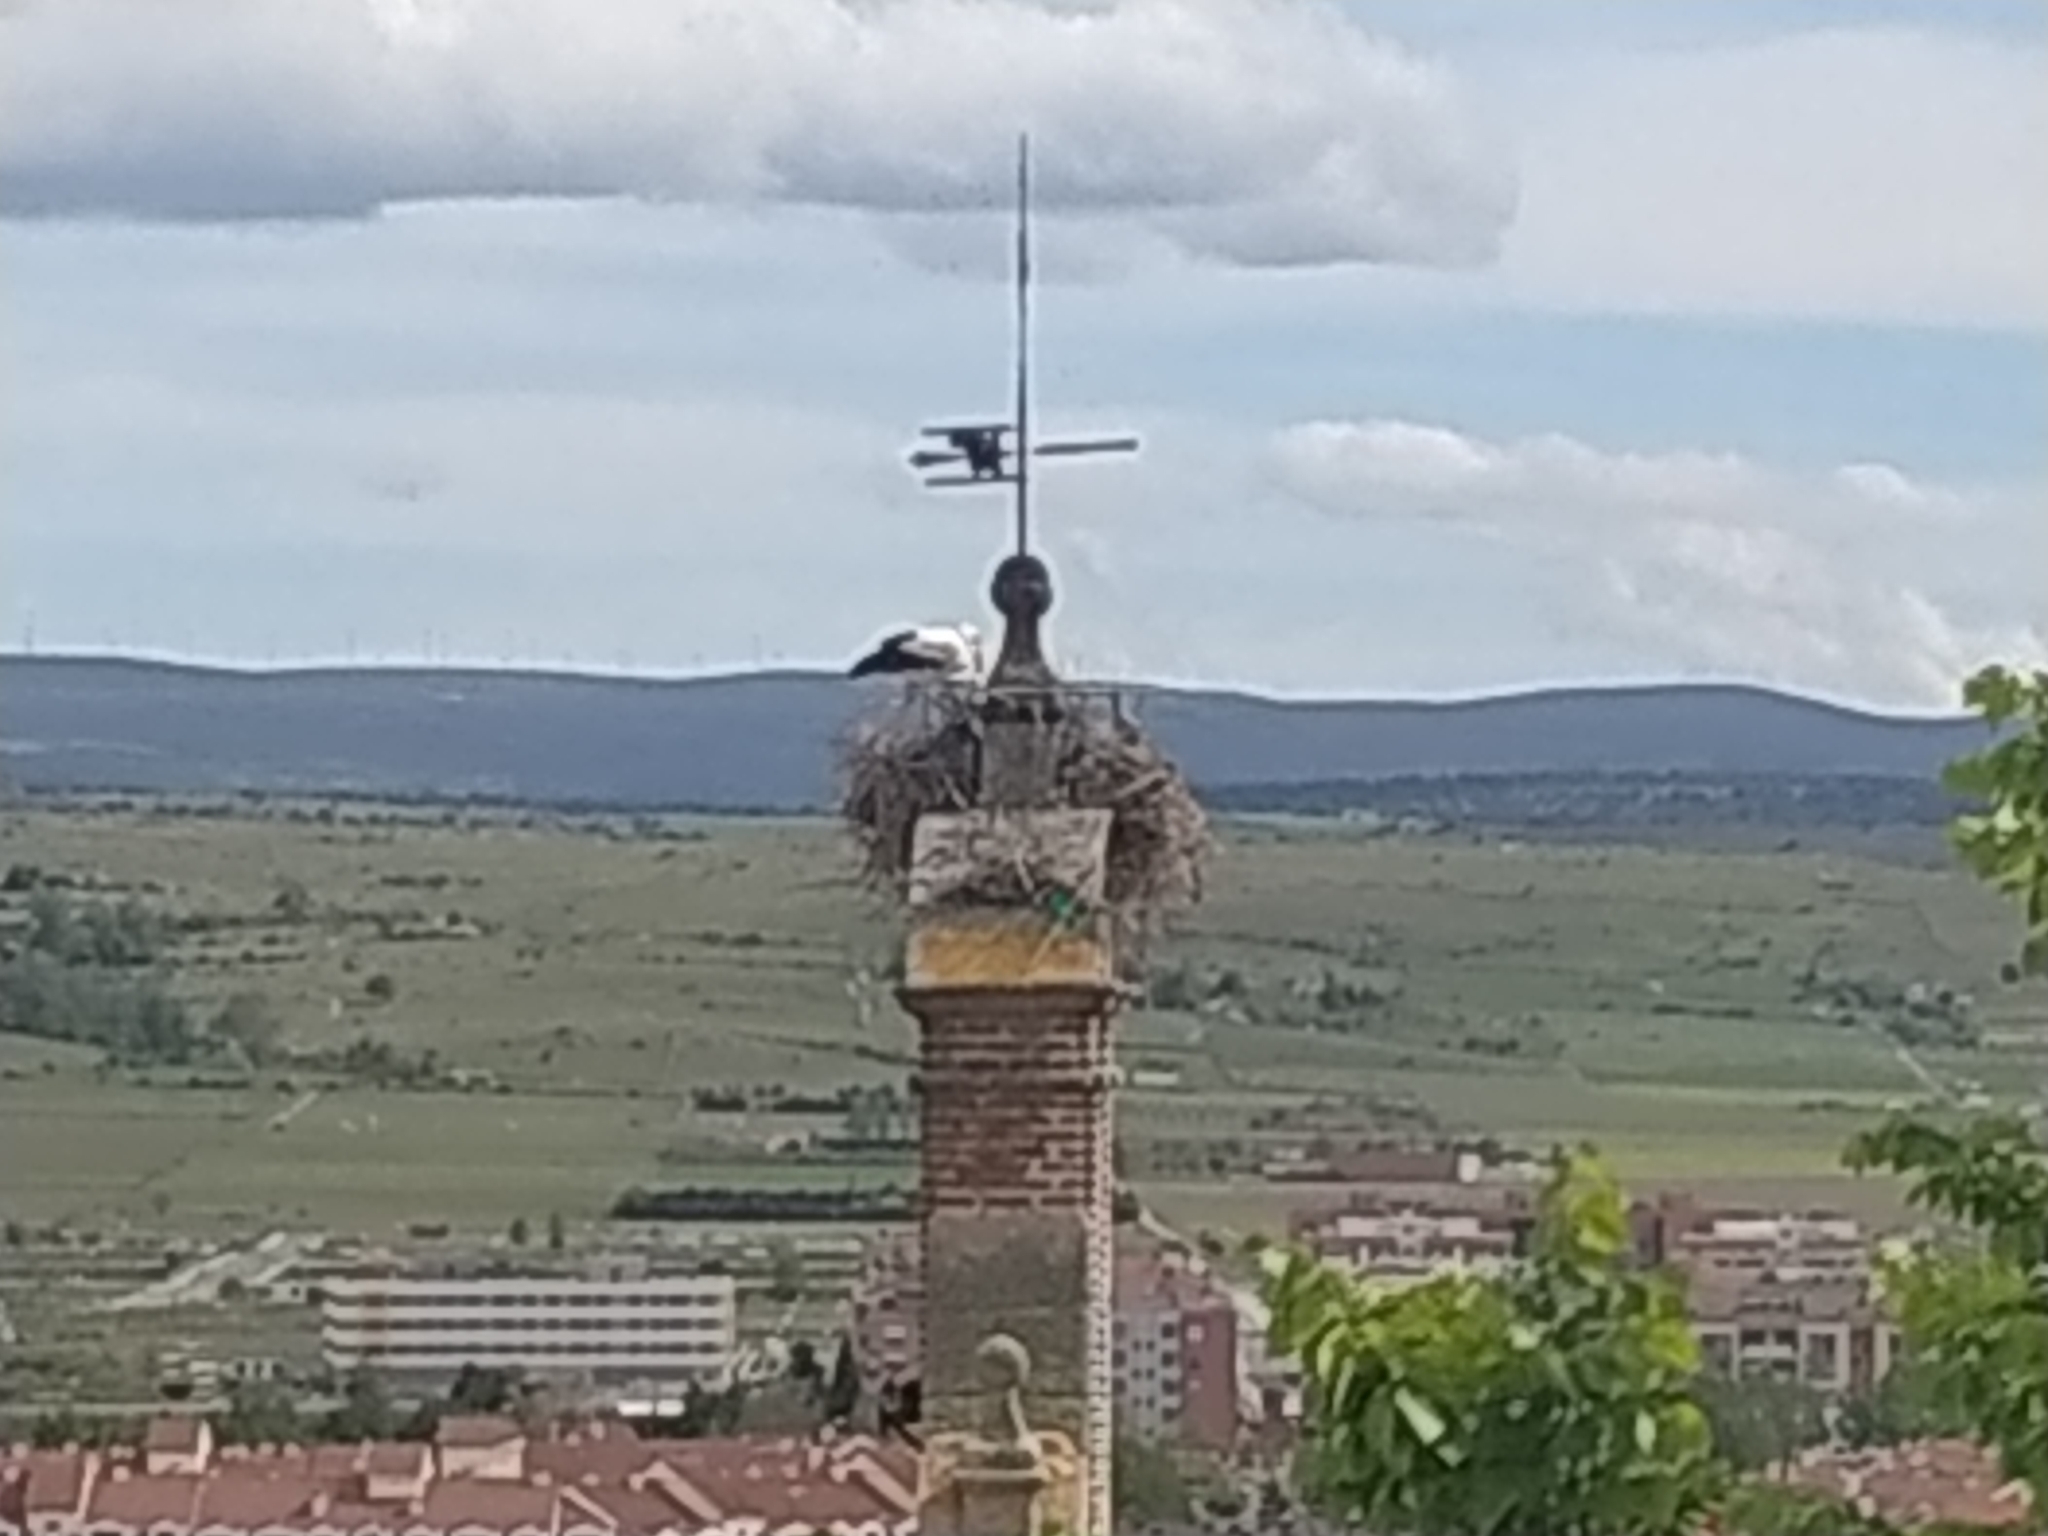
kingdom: Animalia
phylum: Chordata
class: Aves
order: Ciconiiformes
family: Ciconiidae
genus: Ciconia
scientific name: Ciconia ciconia
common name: White stork
